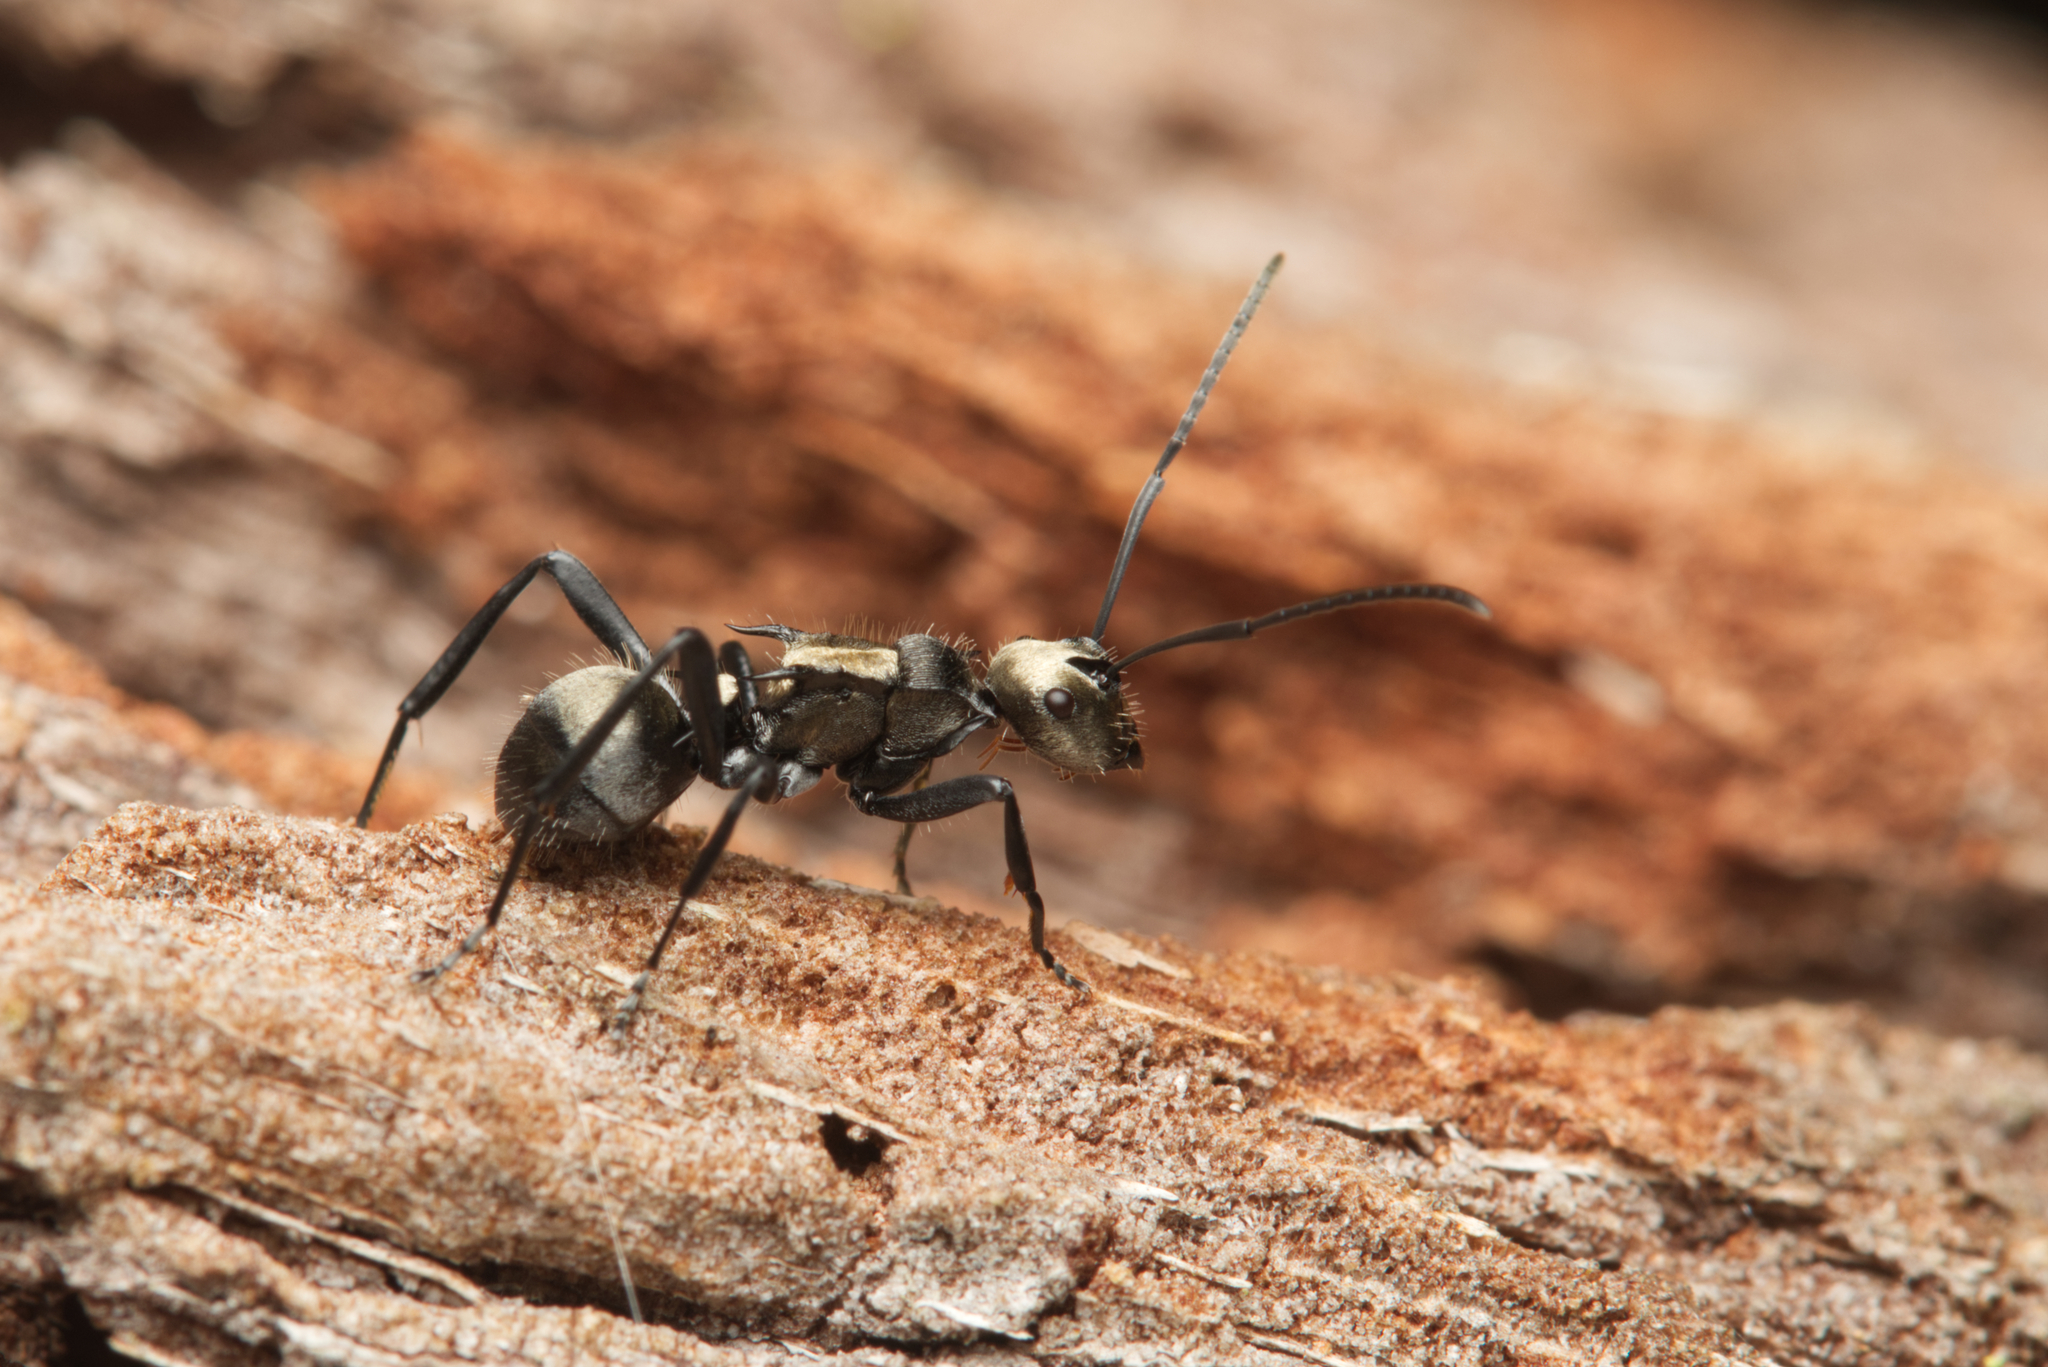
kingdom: Animalia
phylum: Arthropoda
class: Insecta
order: Hymenoptera
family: Formicidae
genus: Polyrhachis
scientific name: Polyrhachis daemeli
